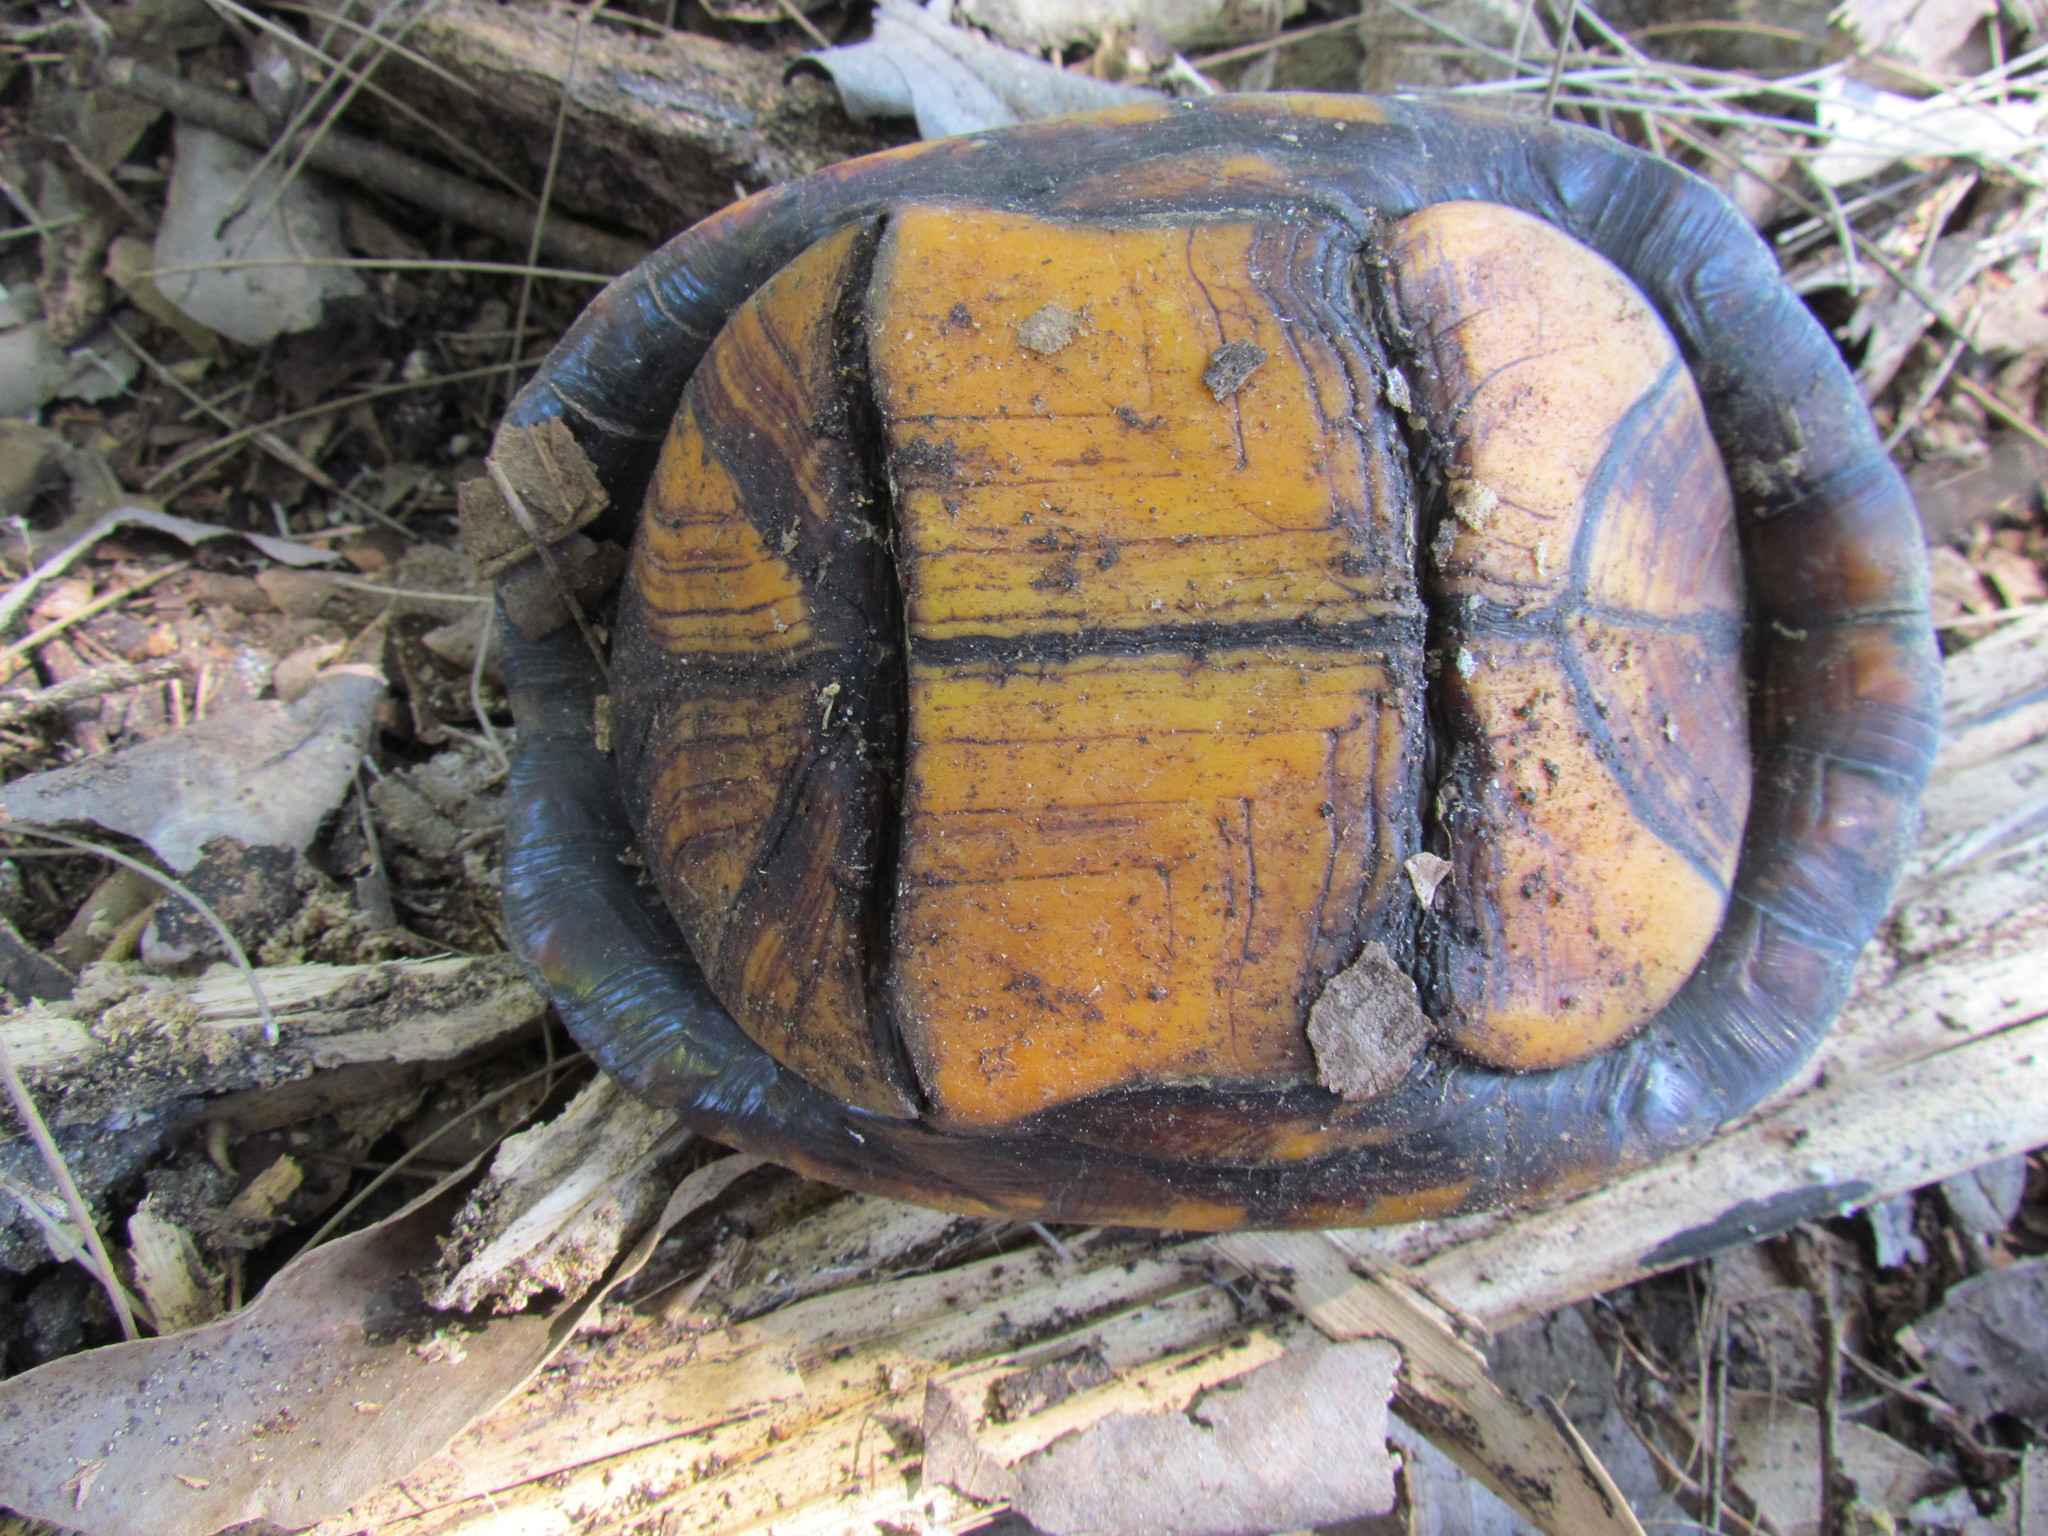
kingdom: Animalia
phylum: Chordata
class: Testudines
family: Kinosternidae
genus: Kinosternon
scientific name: Kinosternon scorpioides
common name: Scorpion mud turtle
